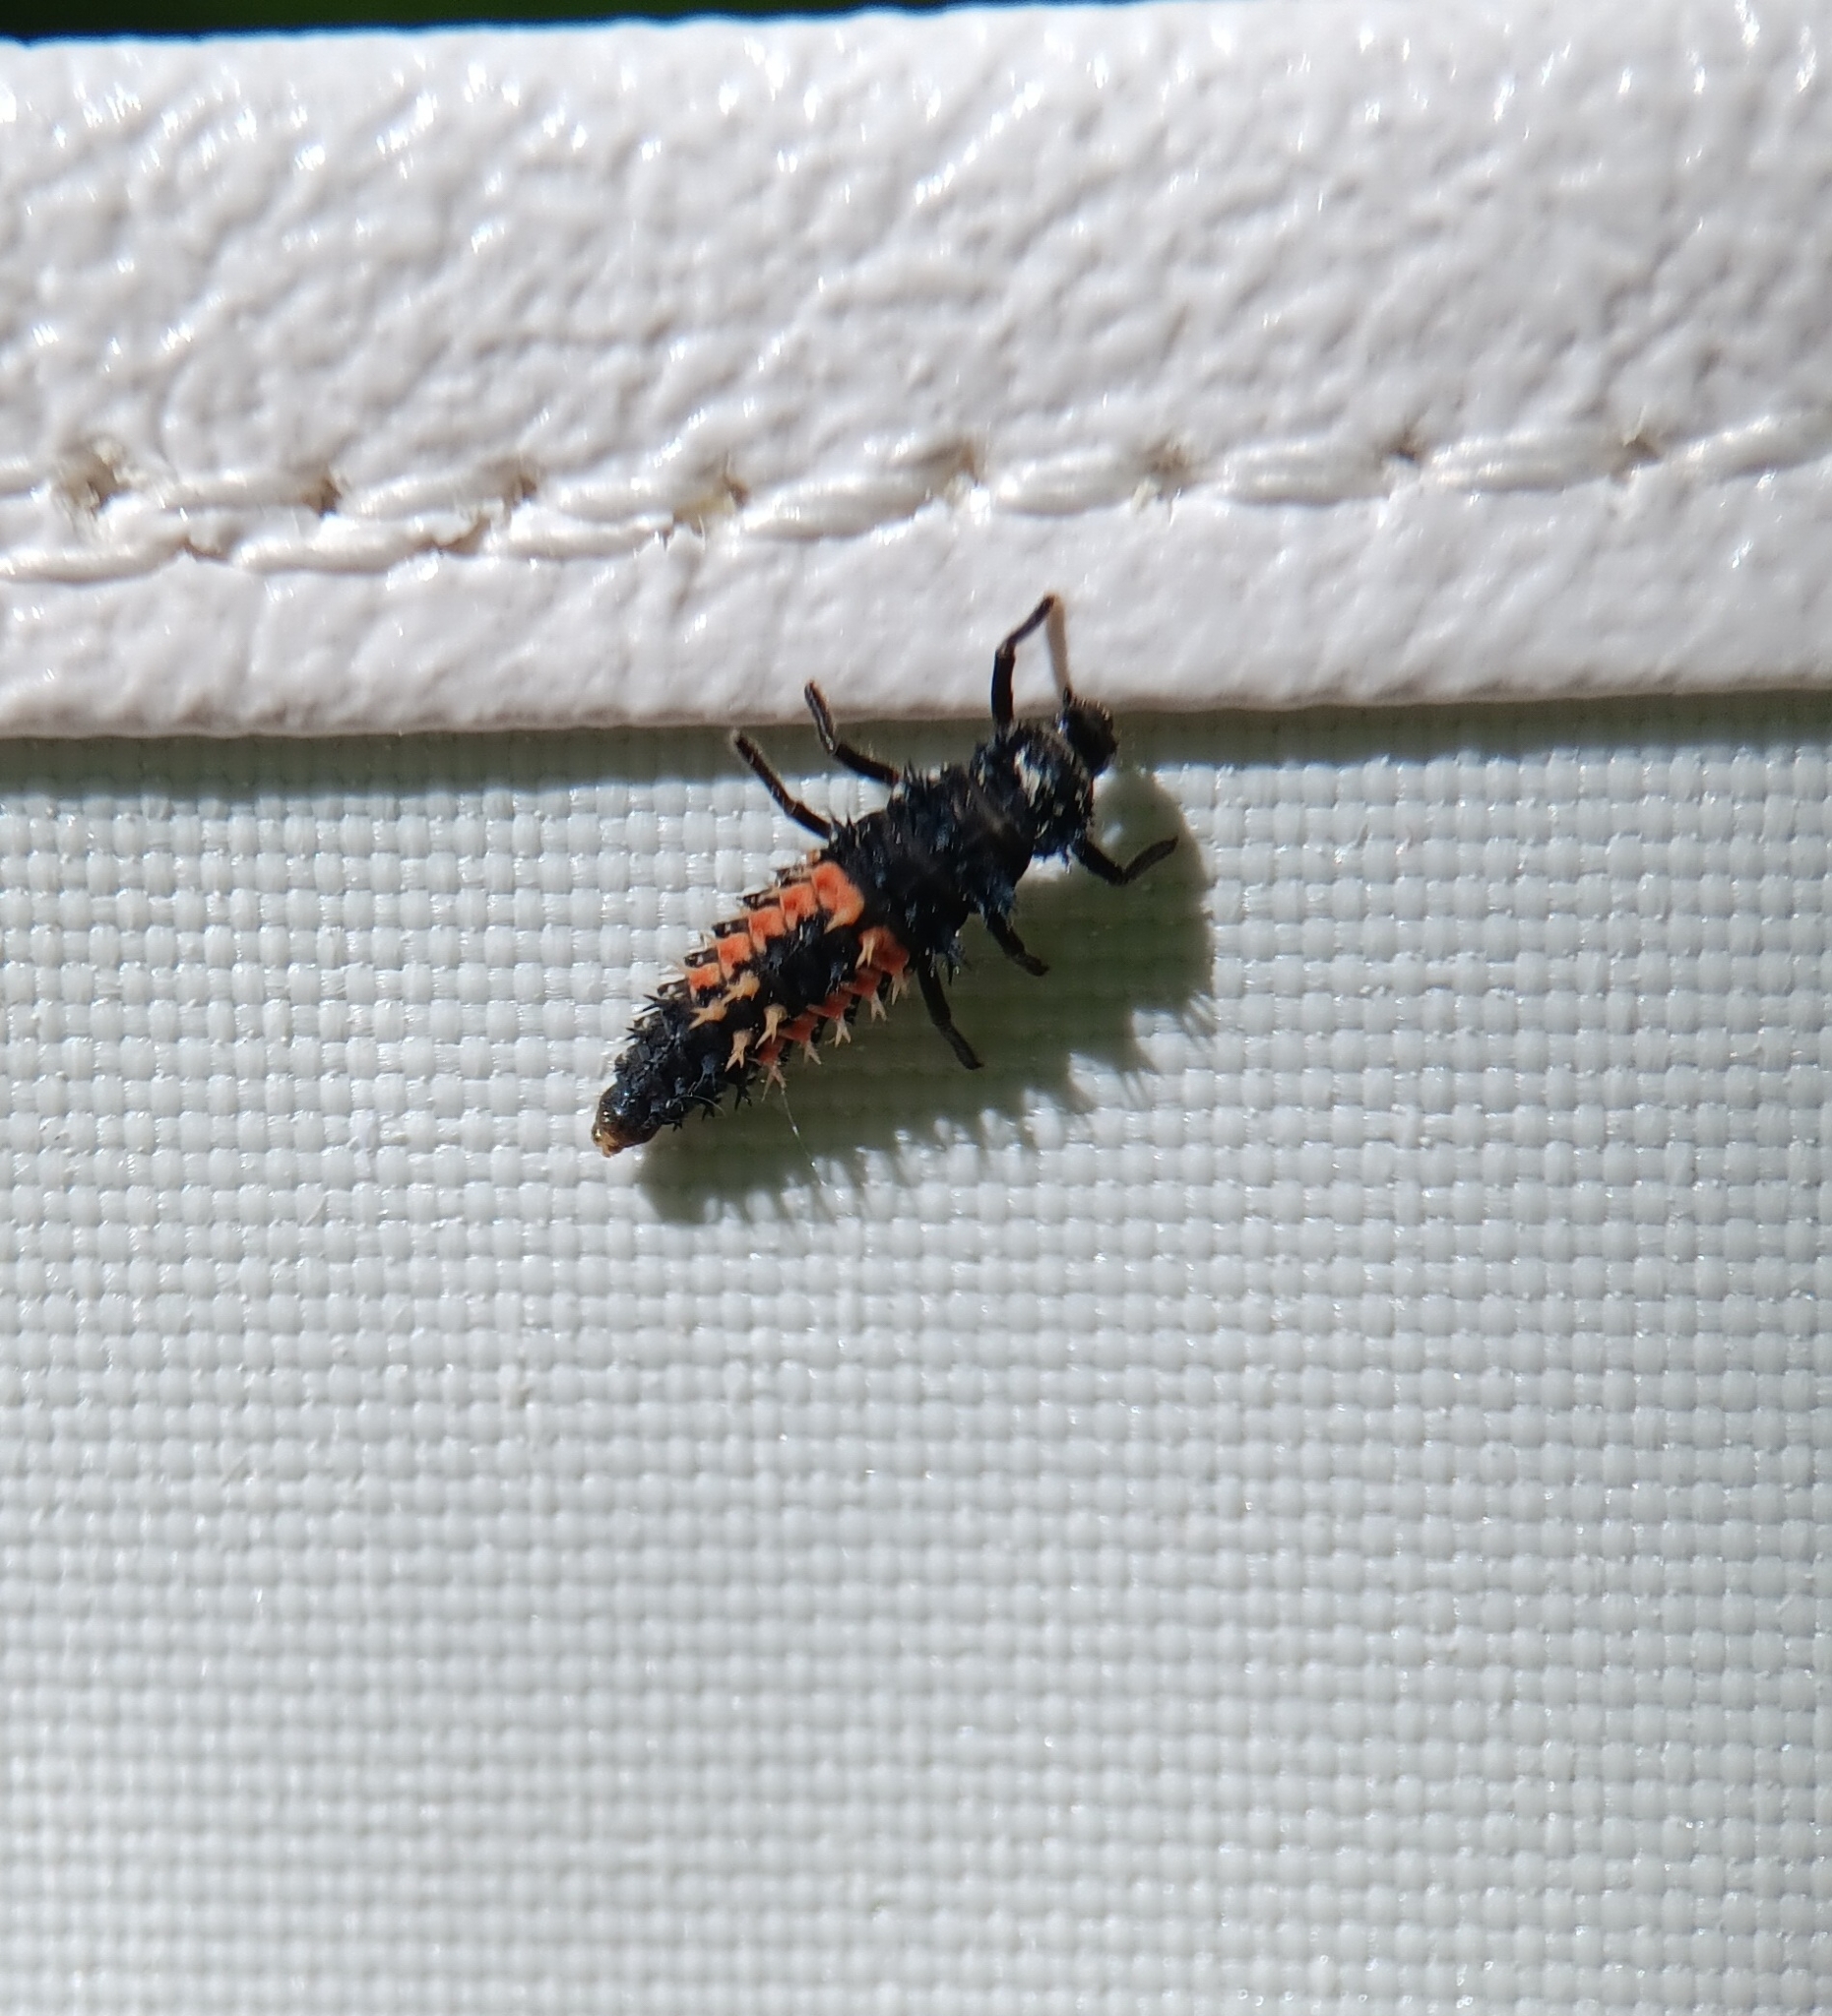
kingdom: Animalia
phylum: Arthropoda
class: Insecta
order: Coleoptera
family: Coccinellidae
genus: Harmonia
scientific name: Harmonia axyridis
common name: Harlequin ladybird
